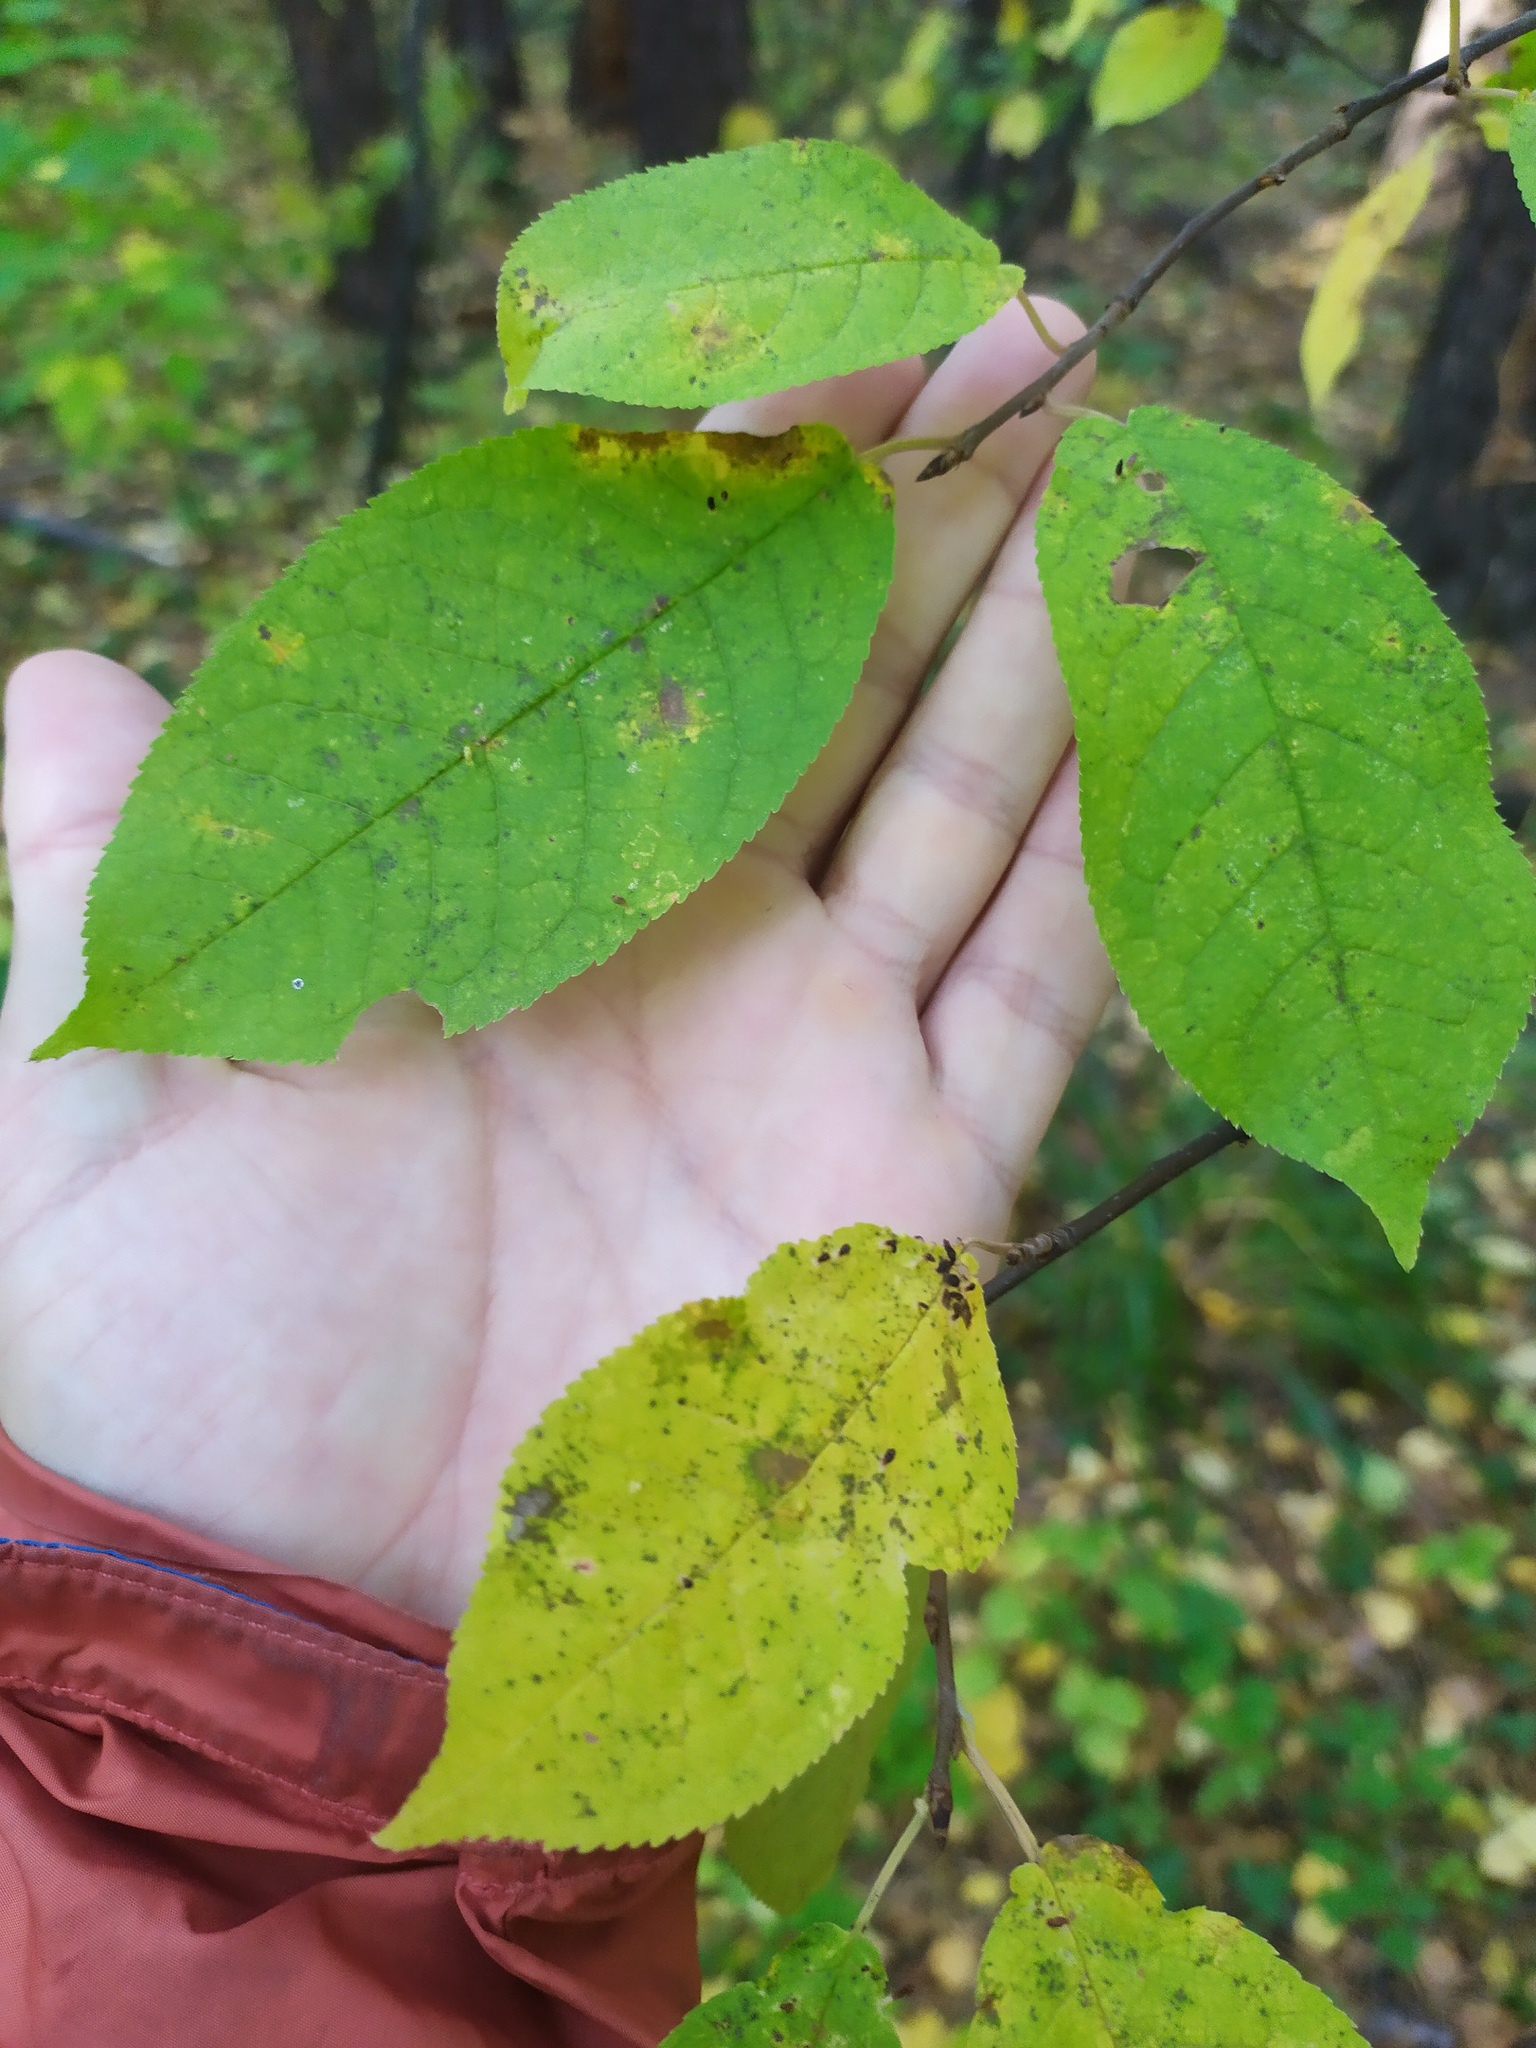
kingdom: Plantae
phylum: Tracheophyta
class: Magnoliopsida
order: Rosales
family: Rosaceae
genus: Prunus
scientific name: Prunus padus
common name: Bird cherry
